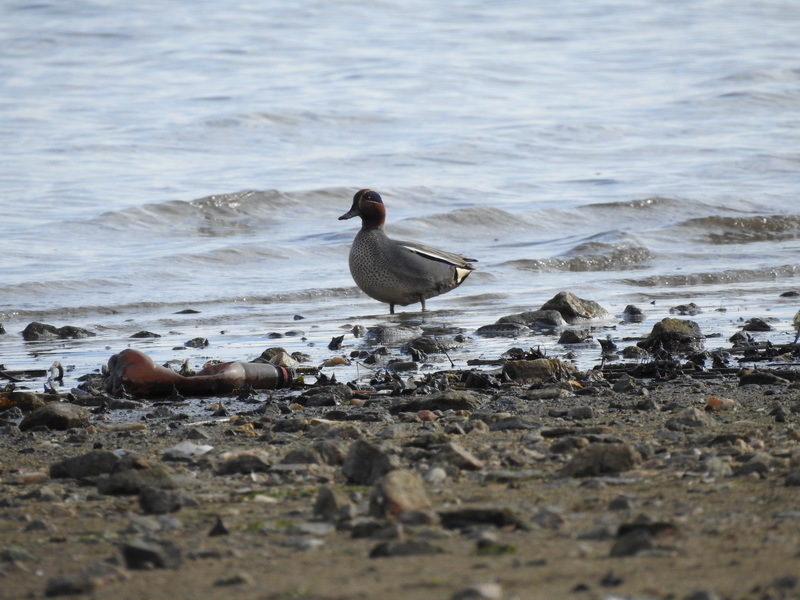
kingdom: Animalia
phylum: Chordata
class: Aves
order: Anseriformes
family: Anatidae
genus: Anas
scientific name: Anas crecca
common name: Eurasian teal
